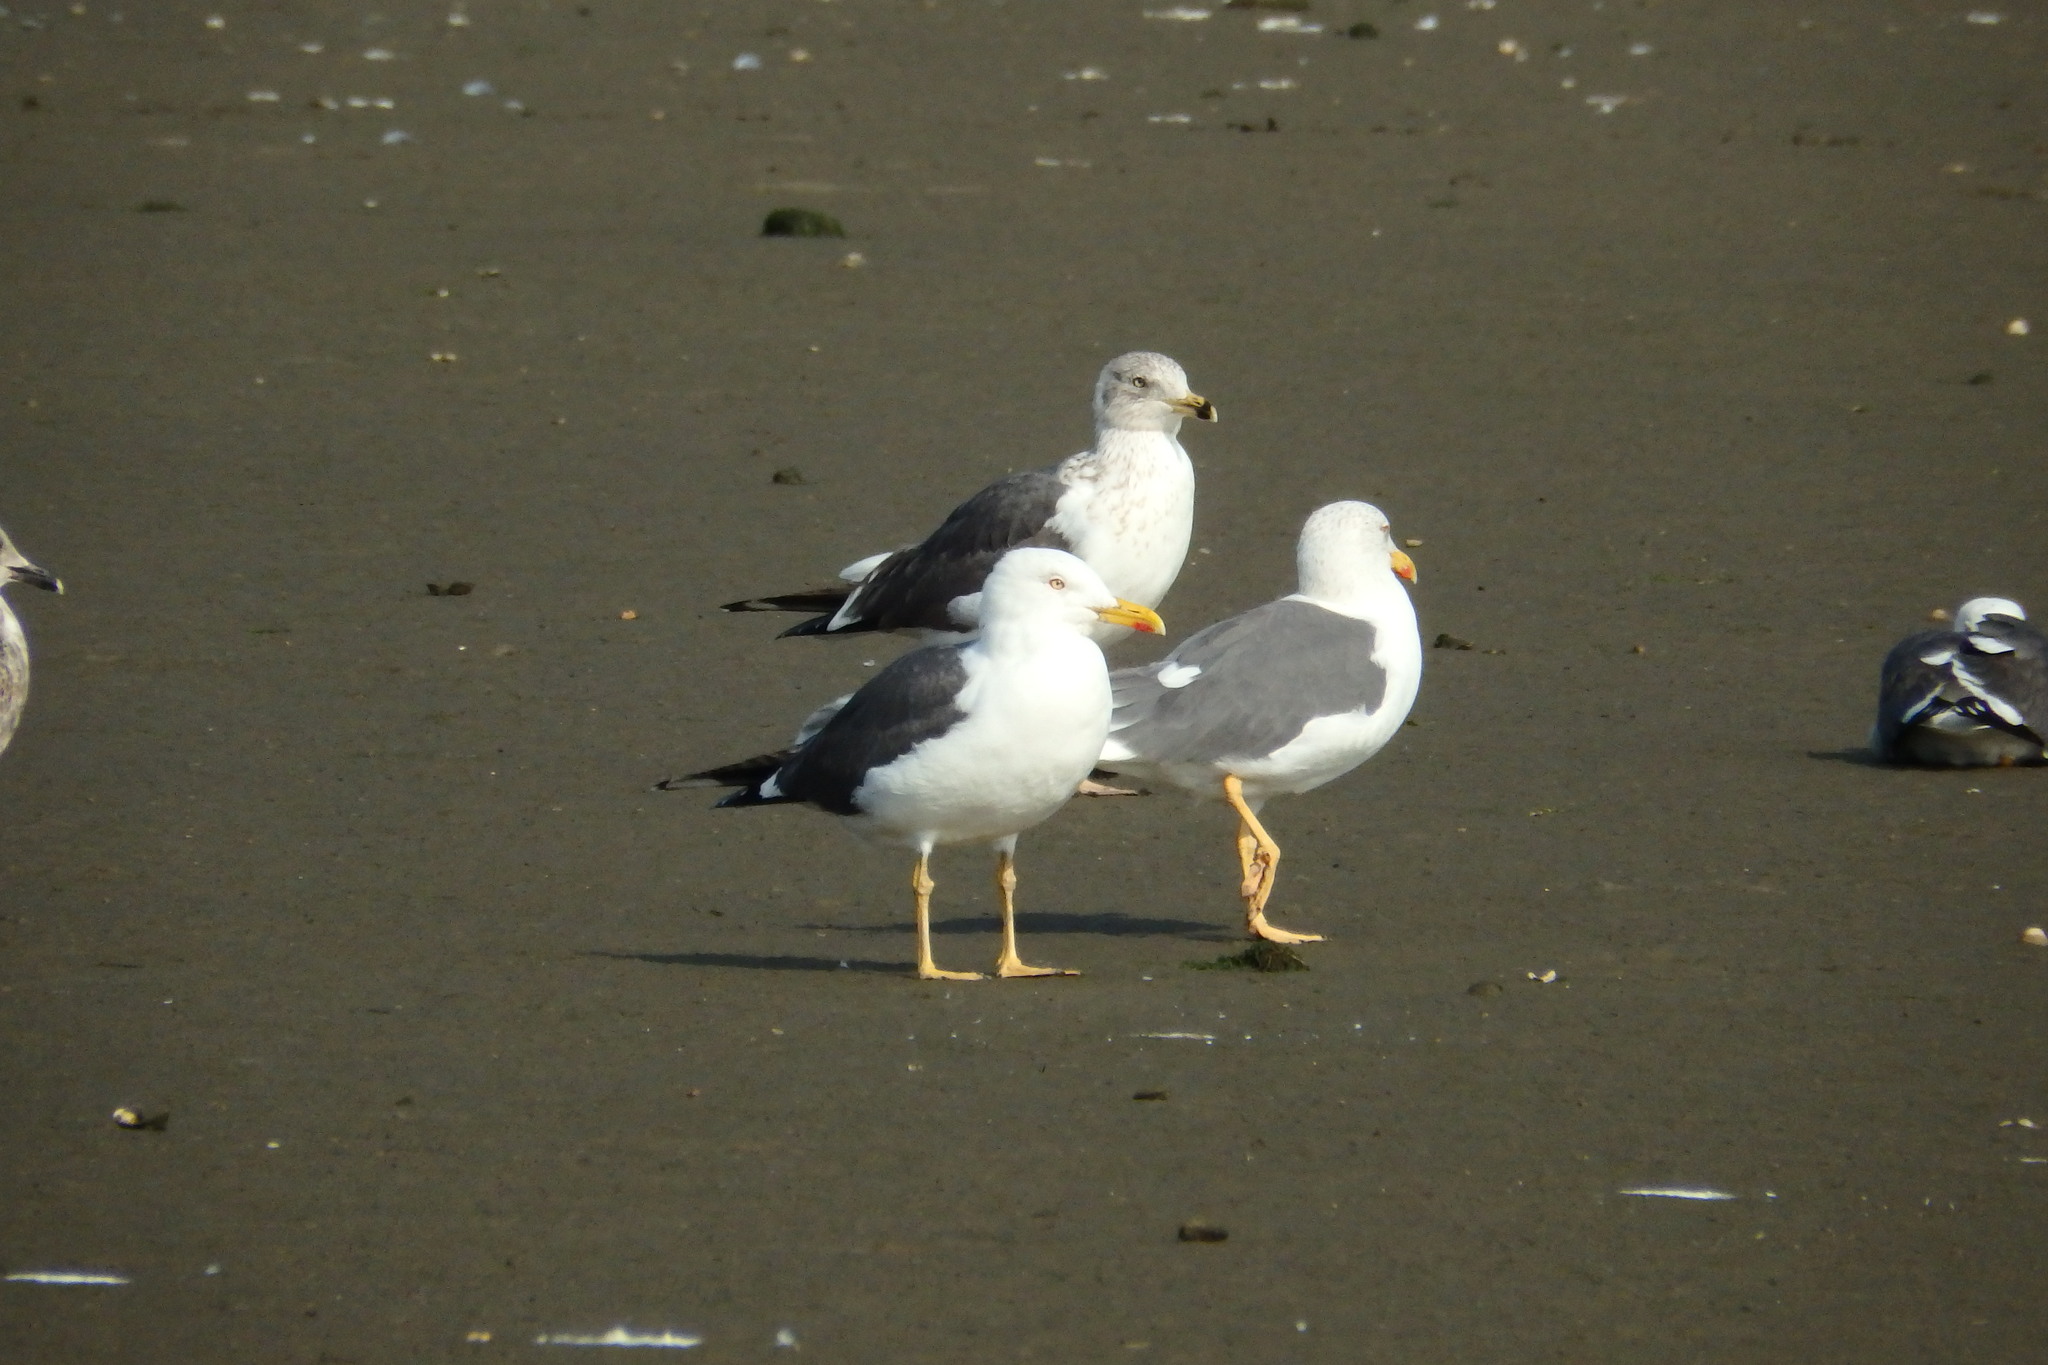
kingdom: Animalia
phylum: Chordata
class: Aves
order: Charadriiformes
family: Laridae
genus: Larus
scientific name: Larus fuscus
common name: Lesser black-backed gull
